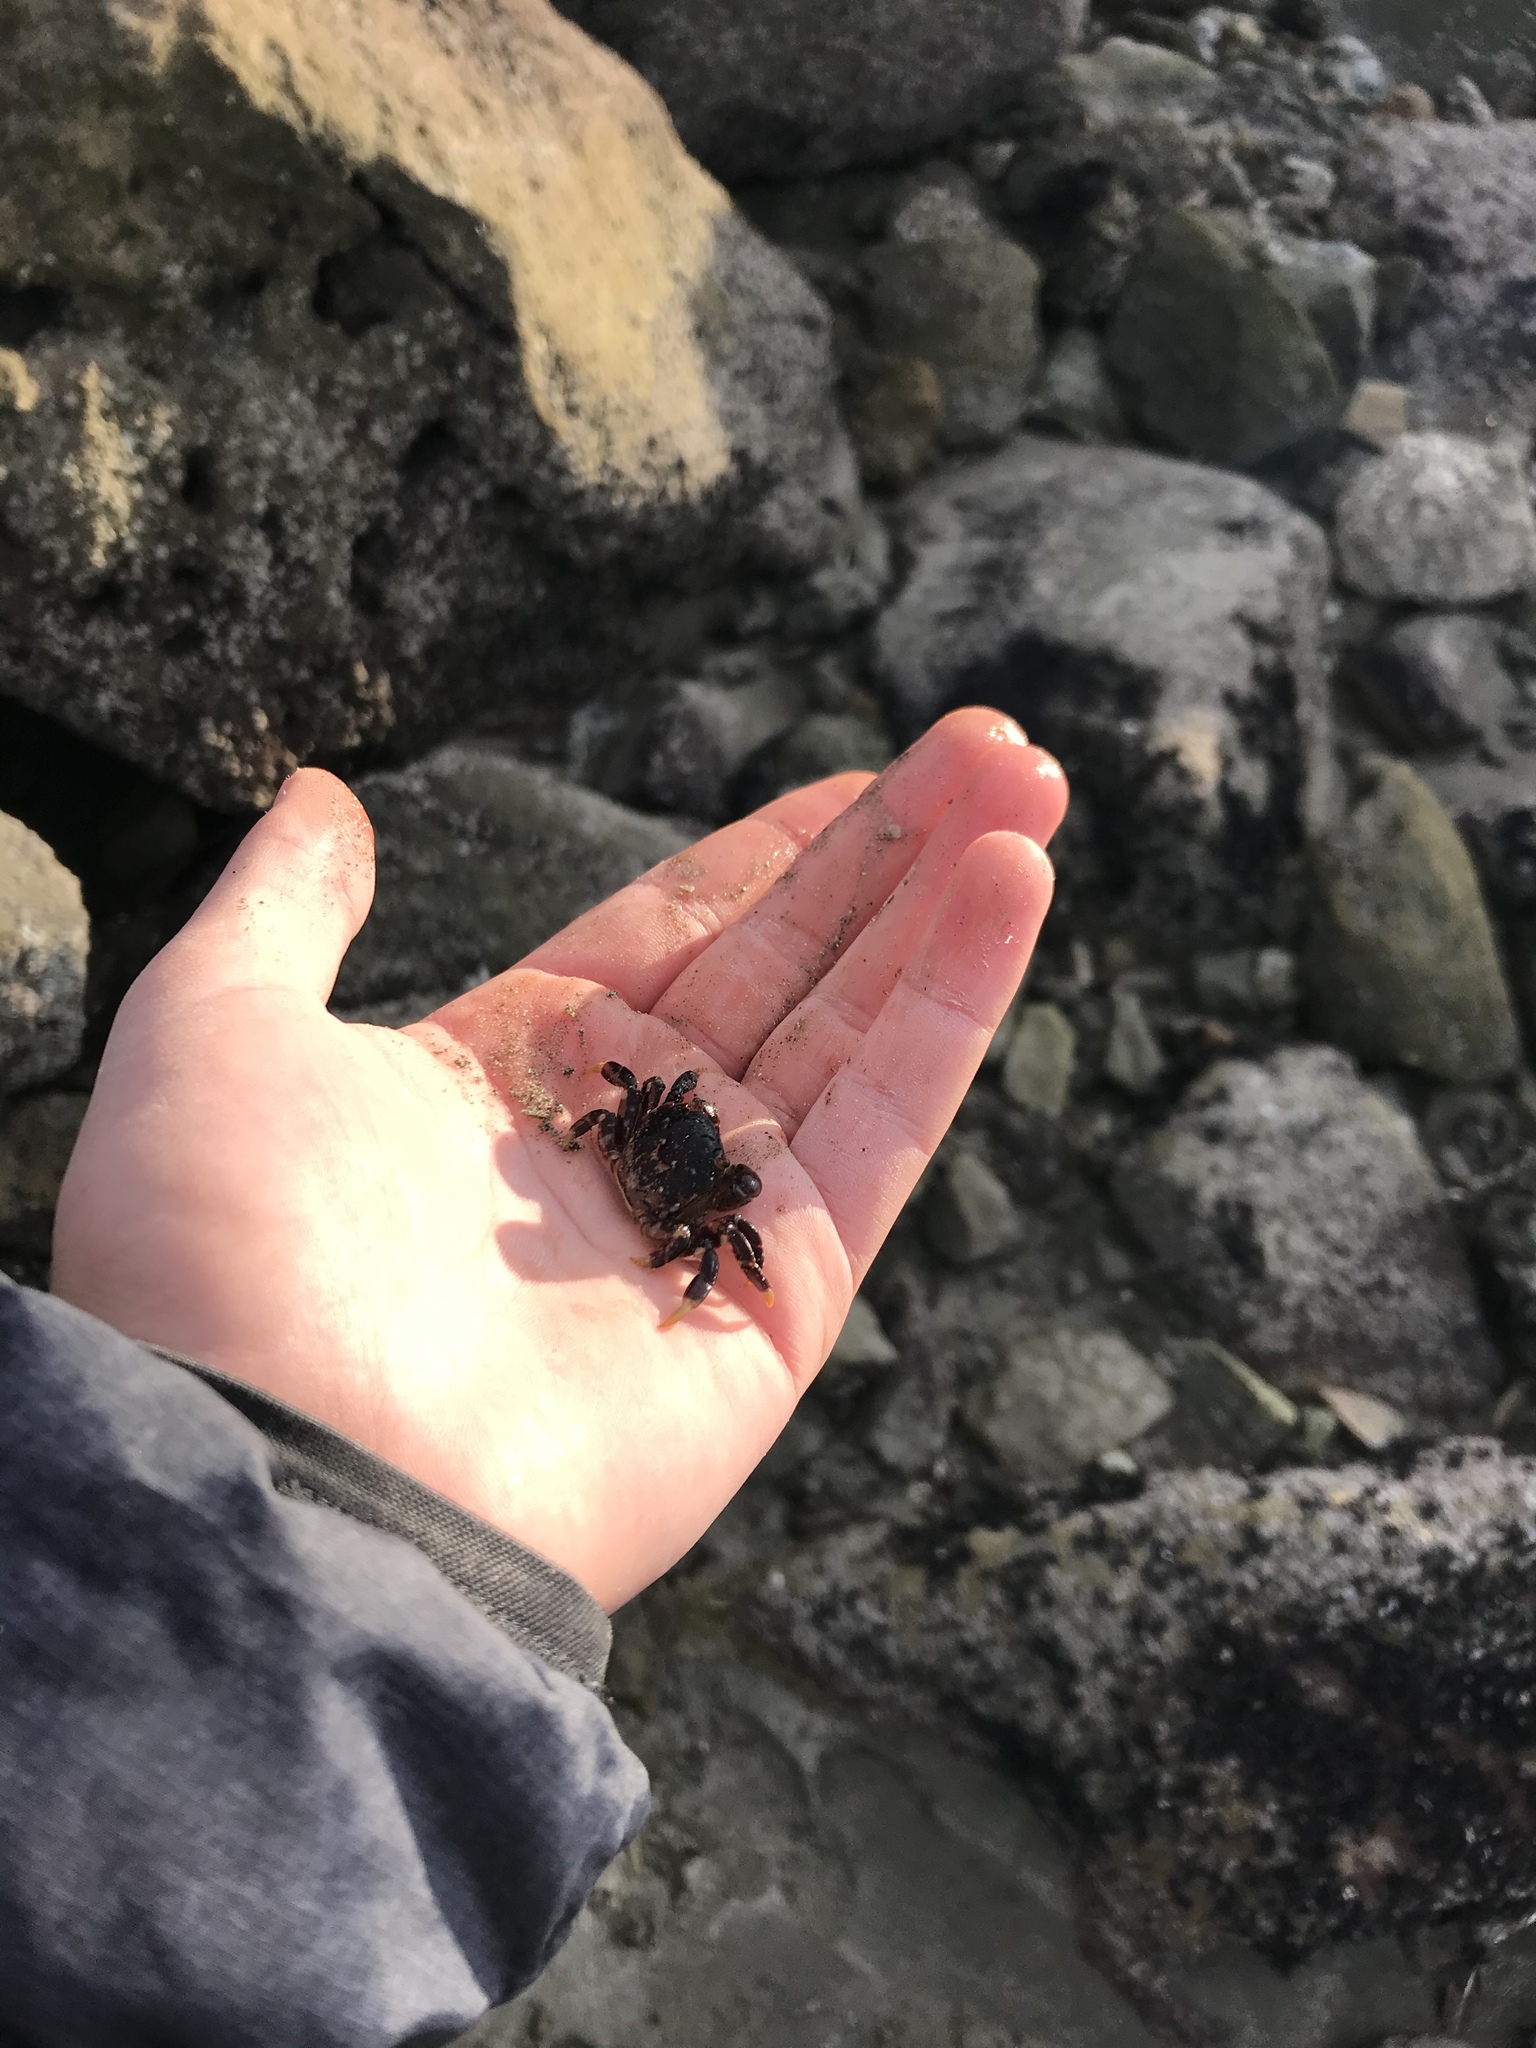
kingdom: Animalia
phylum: Arthropoda
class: Malacostraca
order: Decapoda
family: Varunidae
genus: Hemigrapsus
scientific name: Hemigrapsus nudus
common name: Purple shore crab
